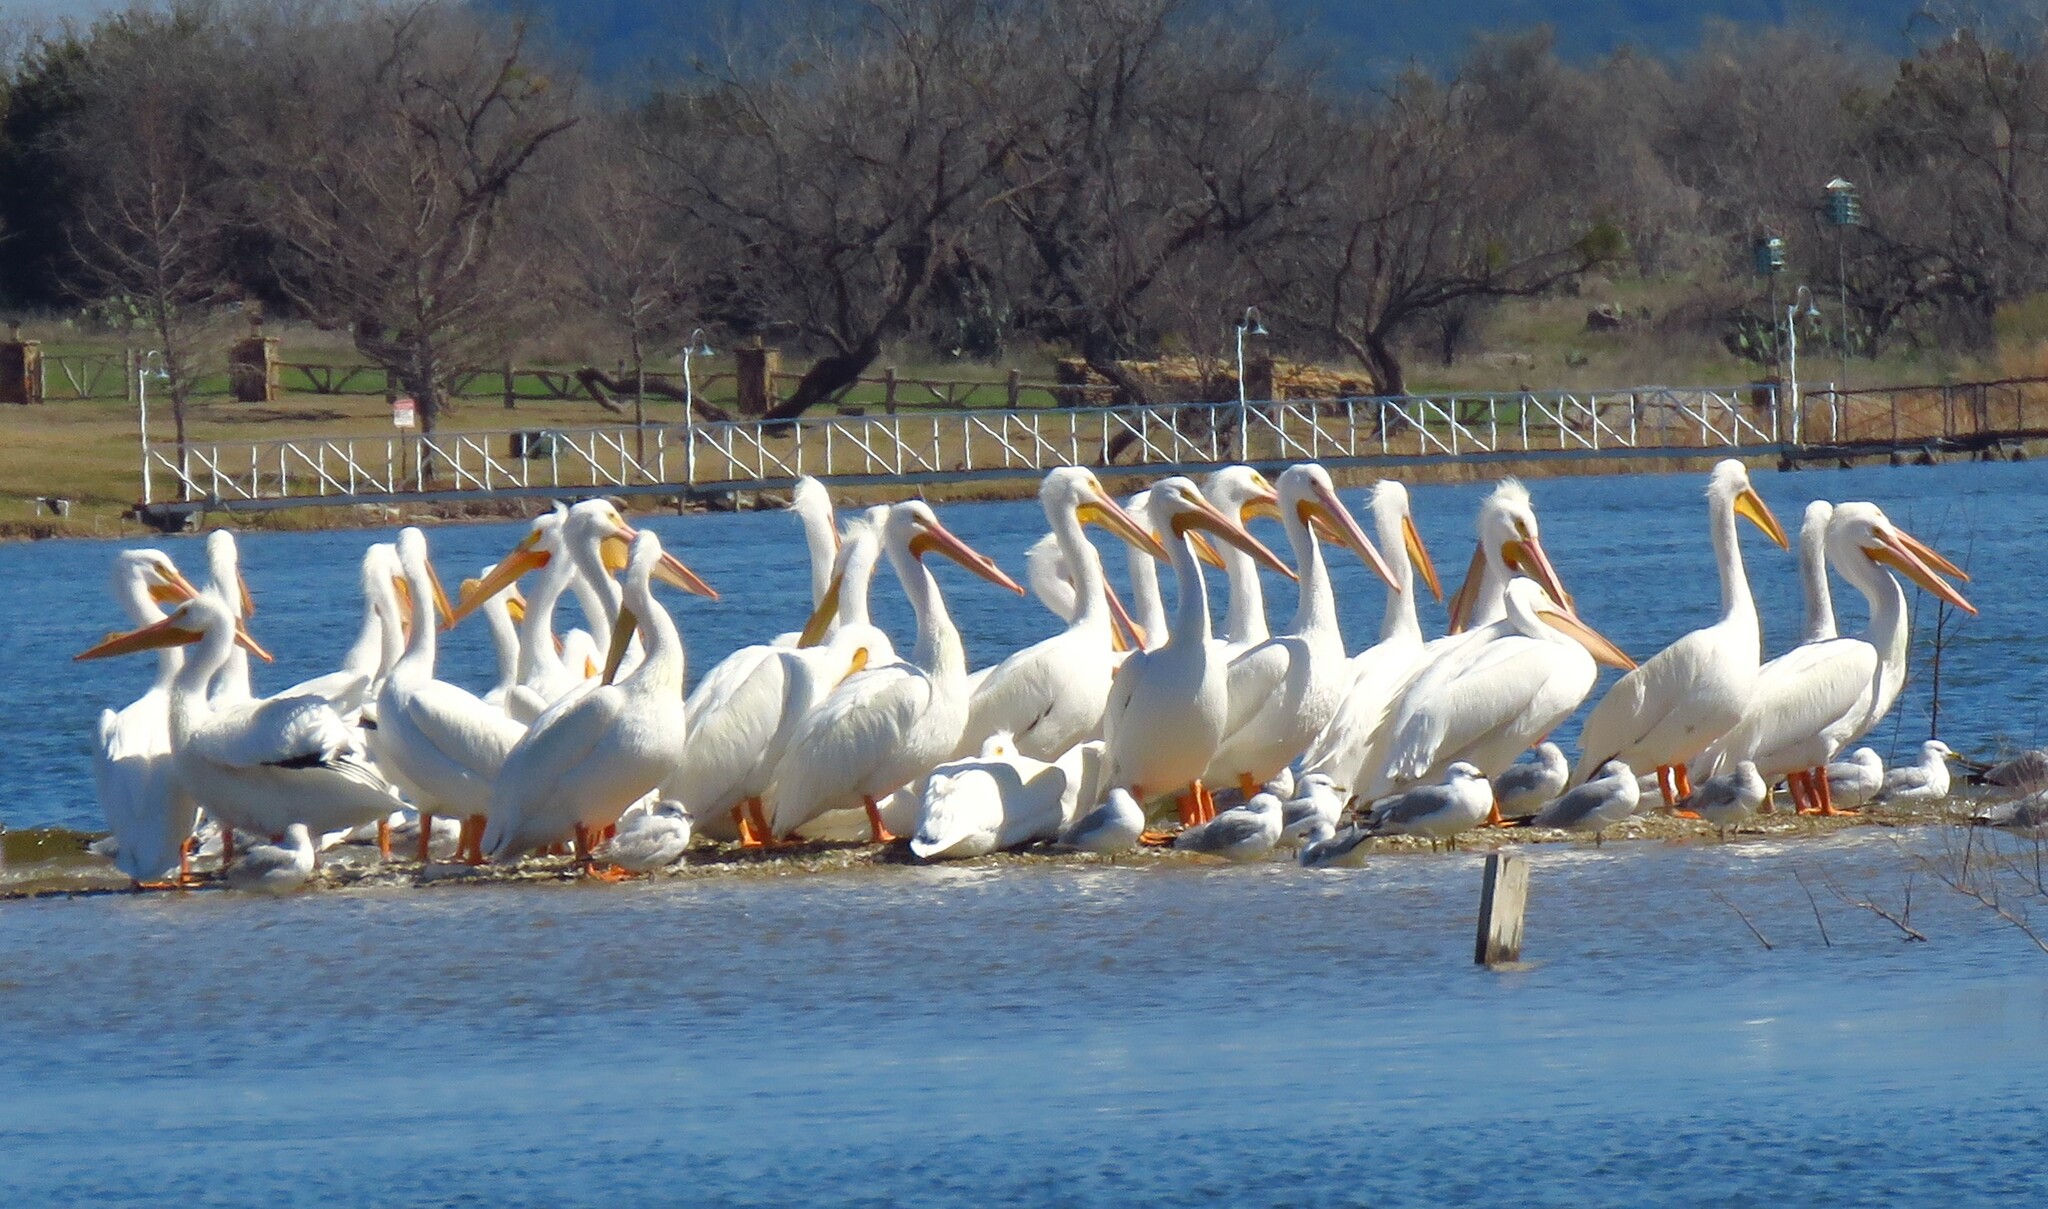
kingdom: Animalia
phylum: Chordata
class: Aves
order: Pelecaniformes
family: Pelecanidae
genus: Pelecanus
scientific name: Pelecanus erythrorhynchos
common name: American white pelican
